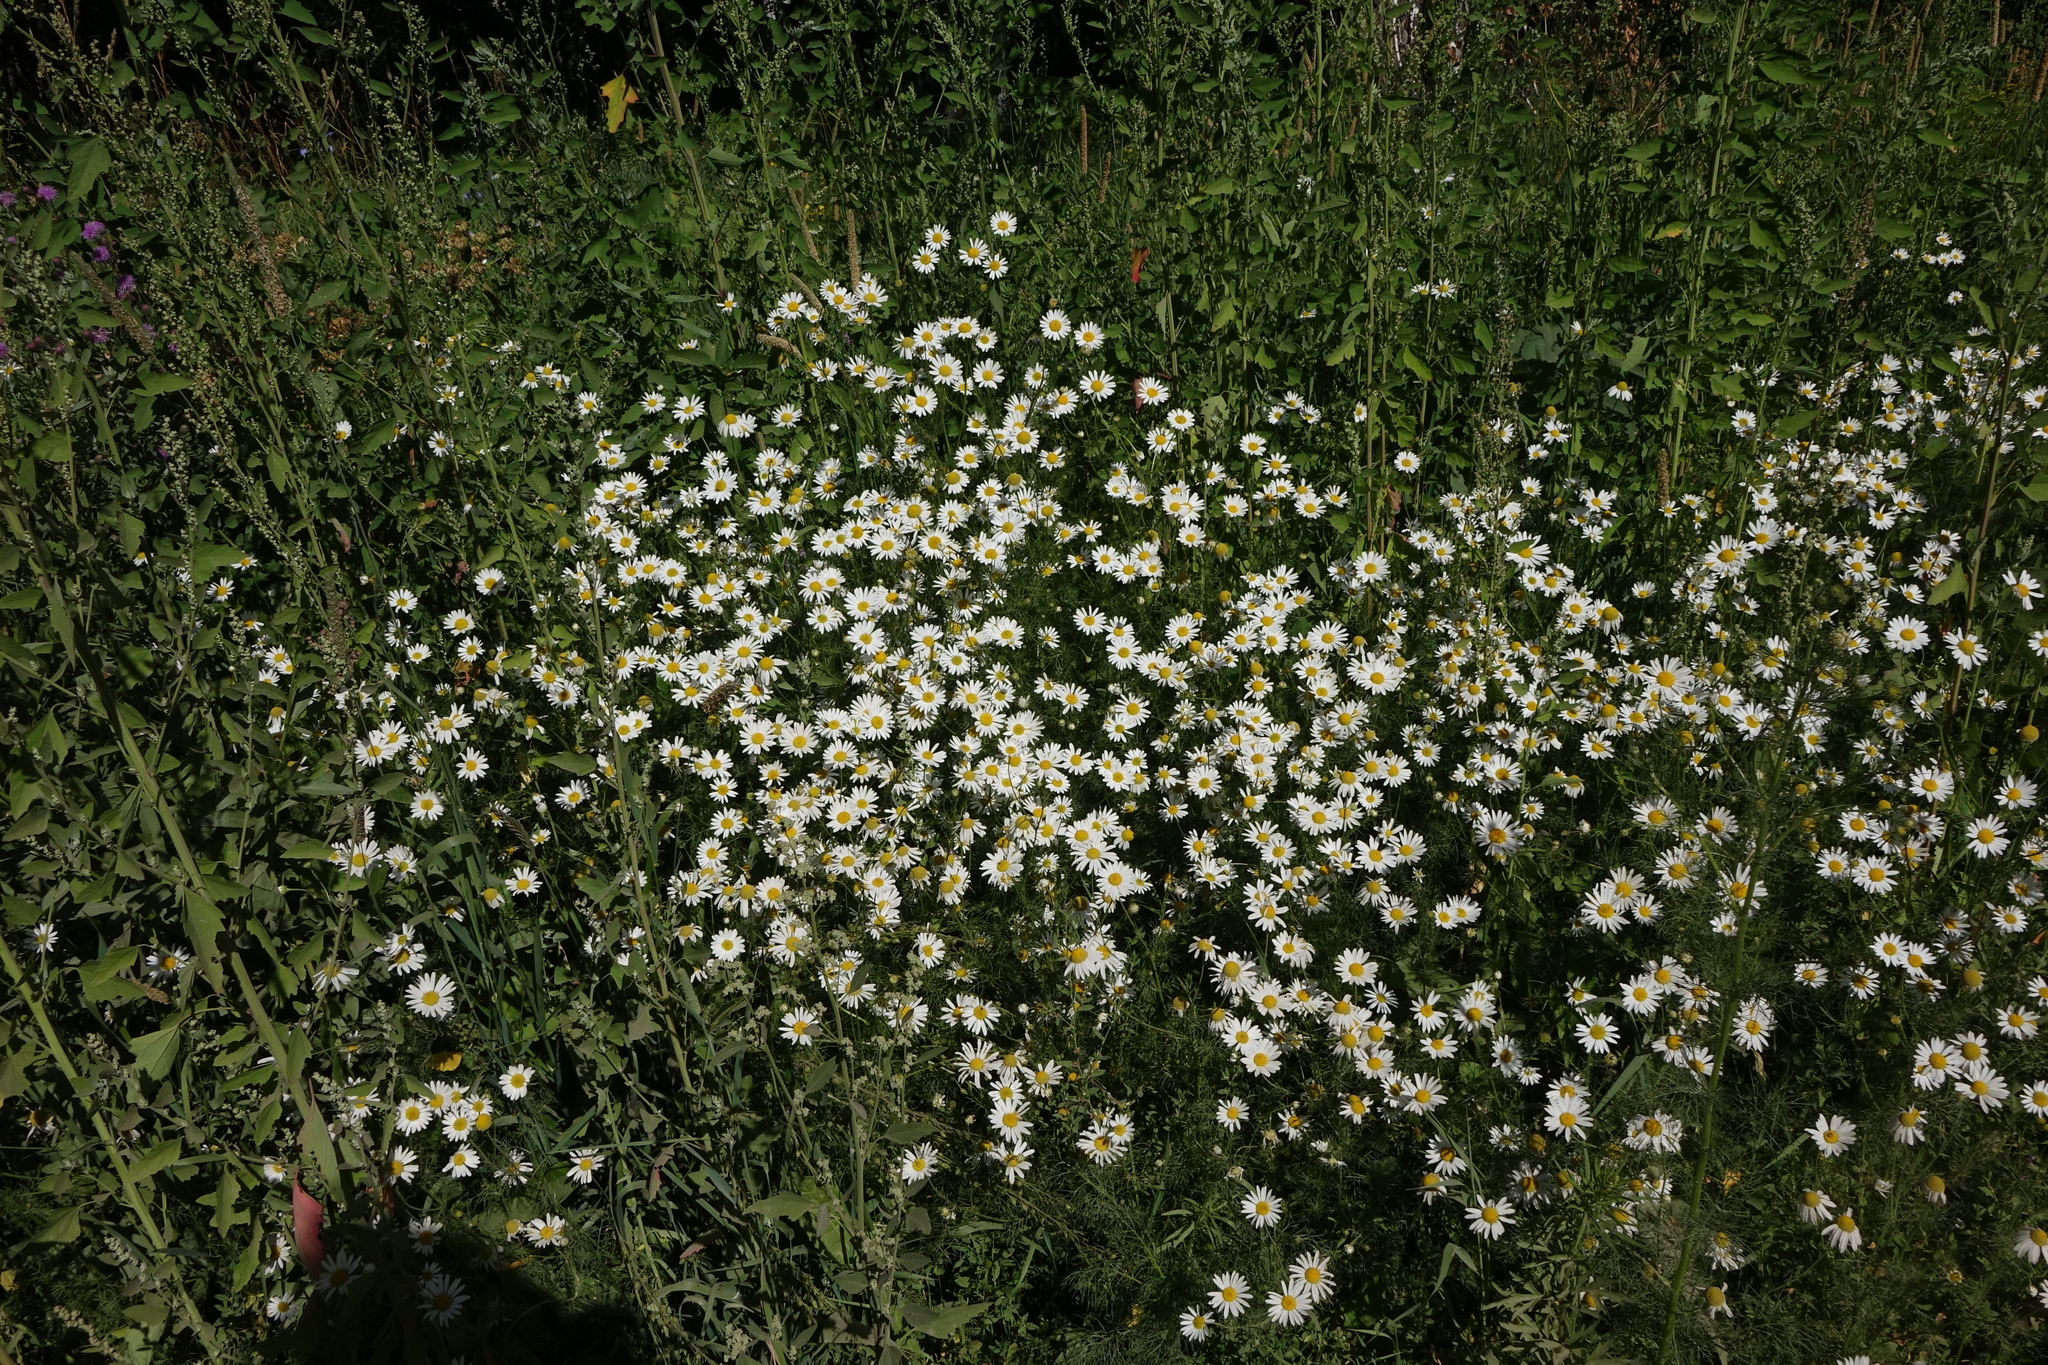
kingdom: Plantae
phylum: Tracheophyta
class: Magnoliopsida
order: Asterales
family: Asteraceae
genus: Tripleurospermum
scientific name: Tripleurospermum inodorum
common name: Scentless mayweed
